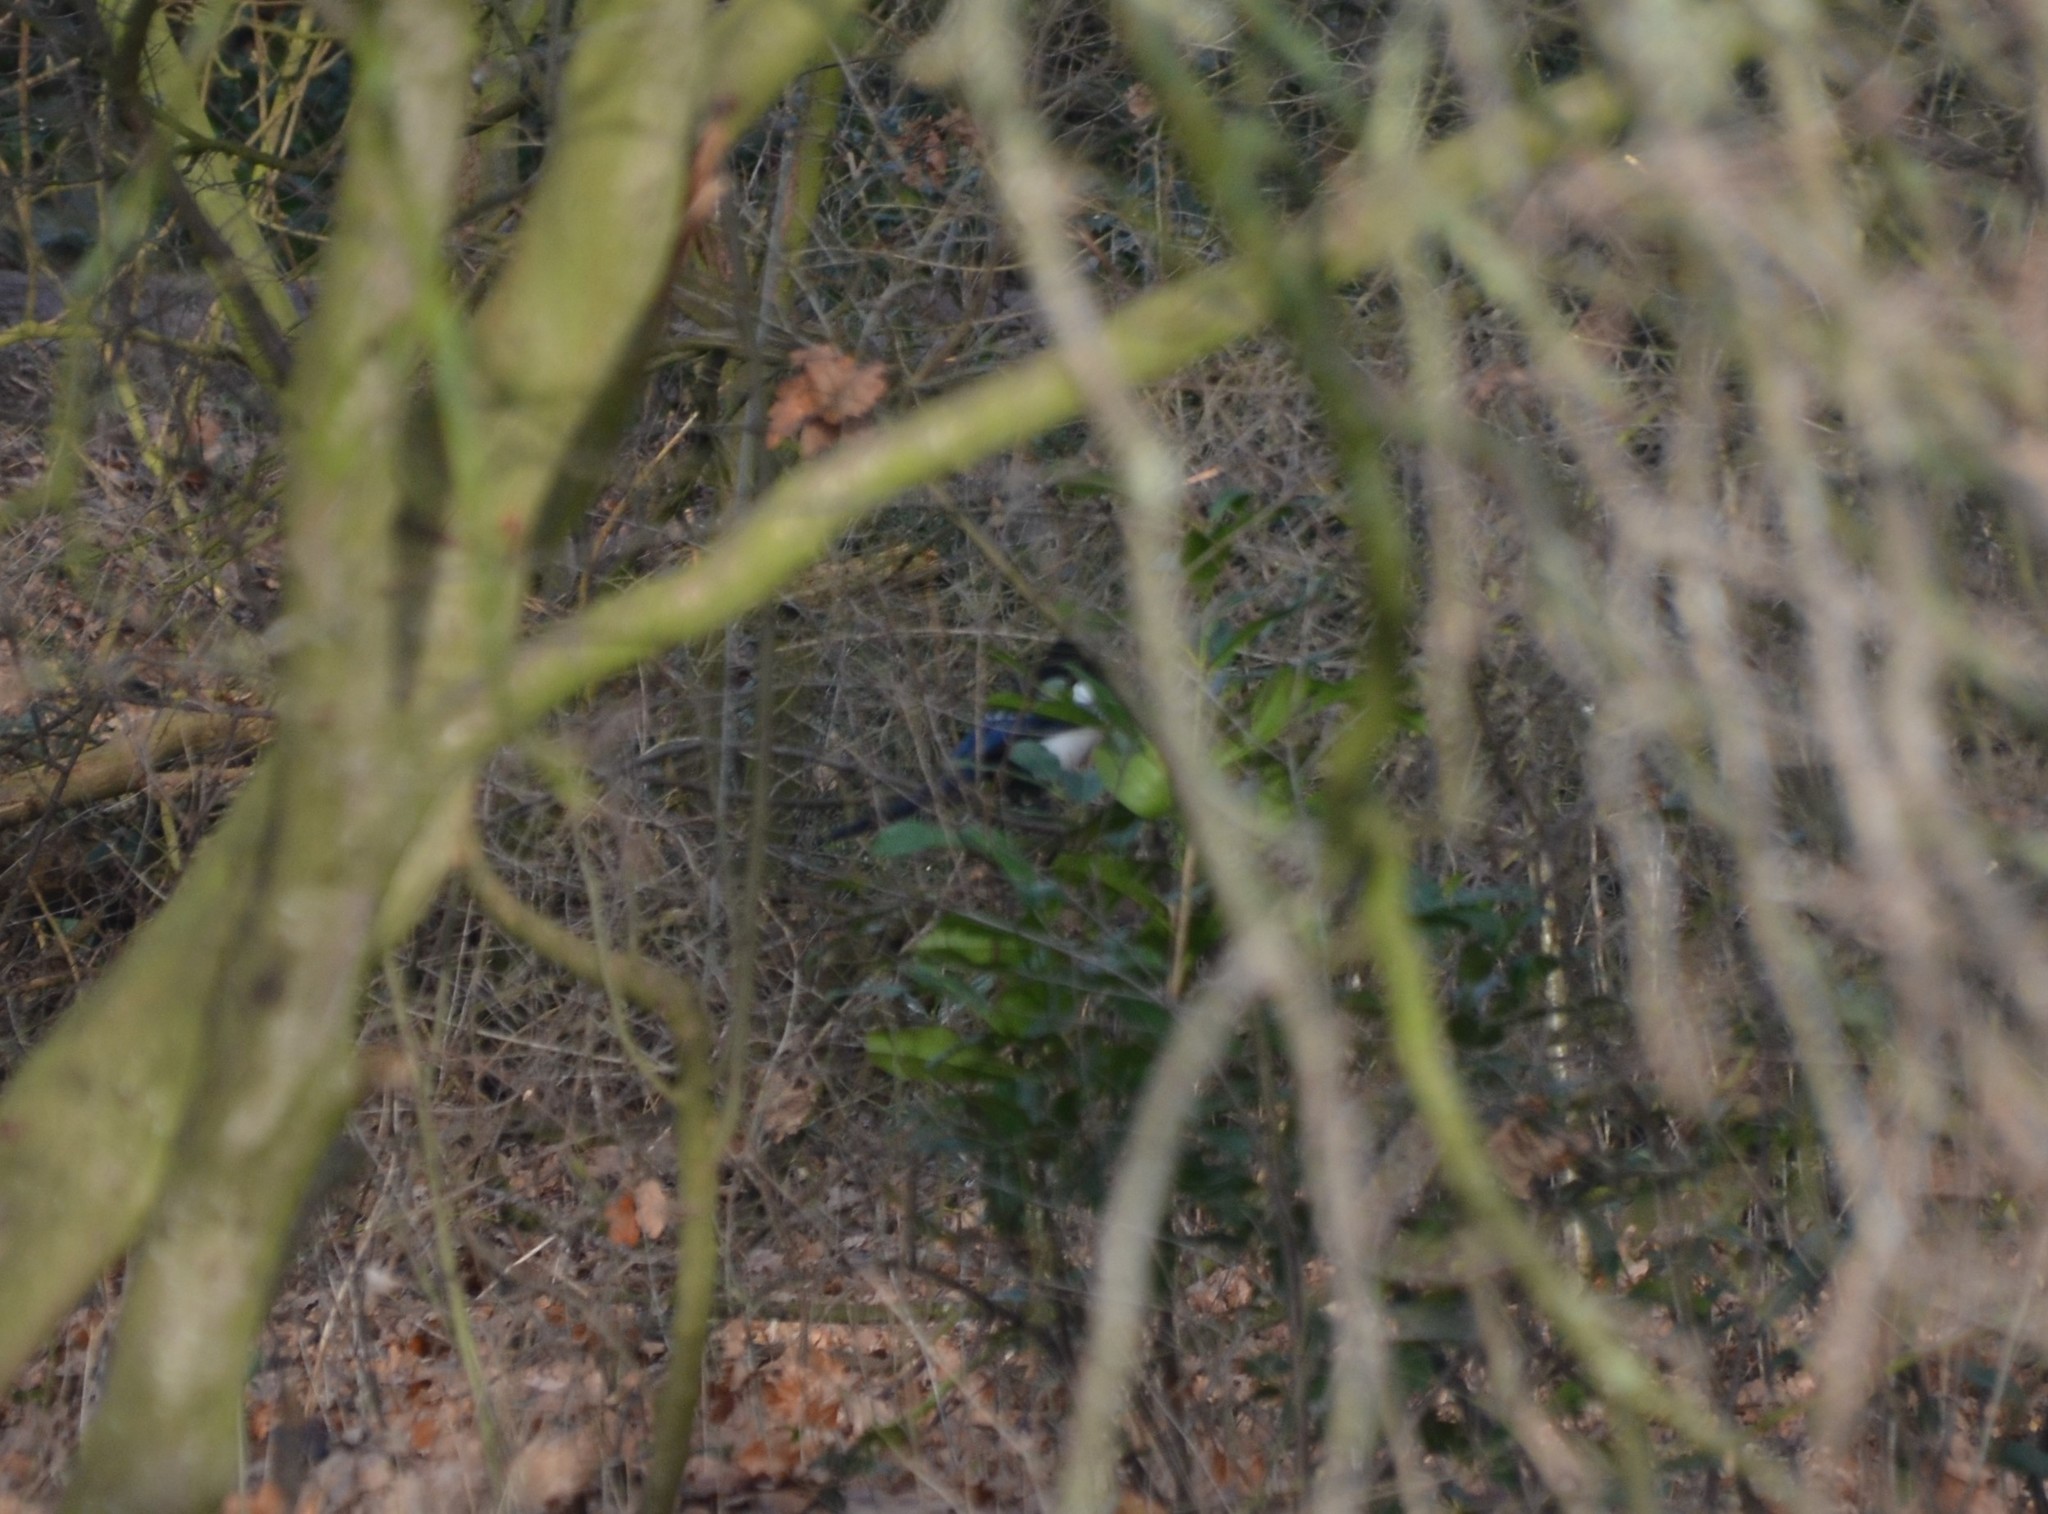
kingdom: Animalia
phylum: Chordata
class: Aves
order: Passeriformes
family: Corvidae
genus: Pica
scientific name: Pica pica
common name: Eurasian magpie
